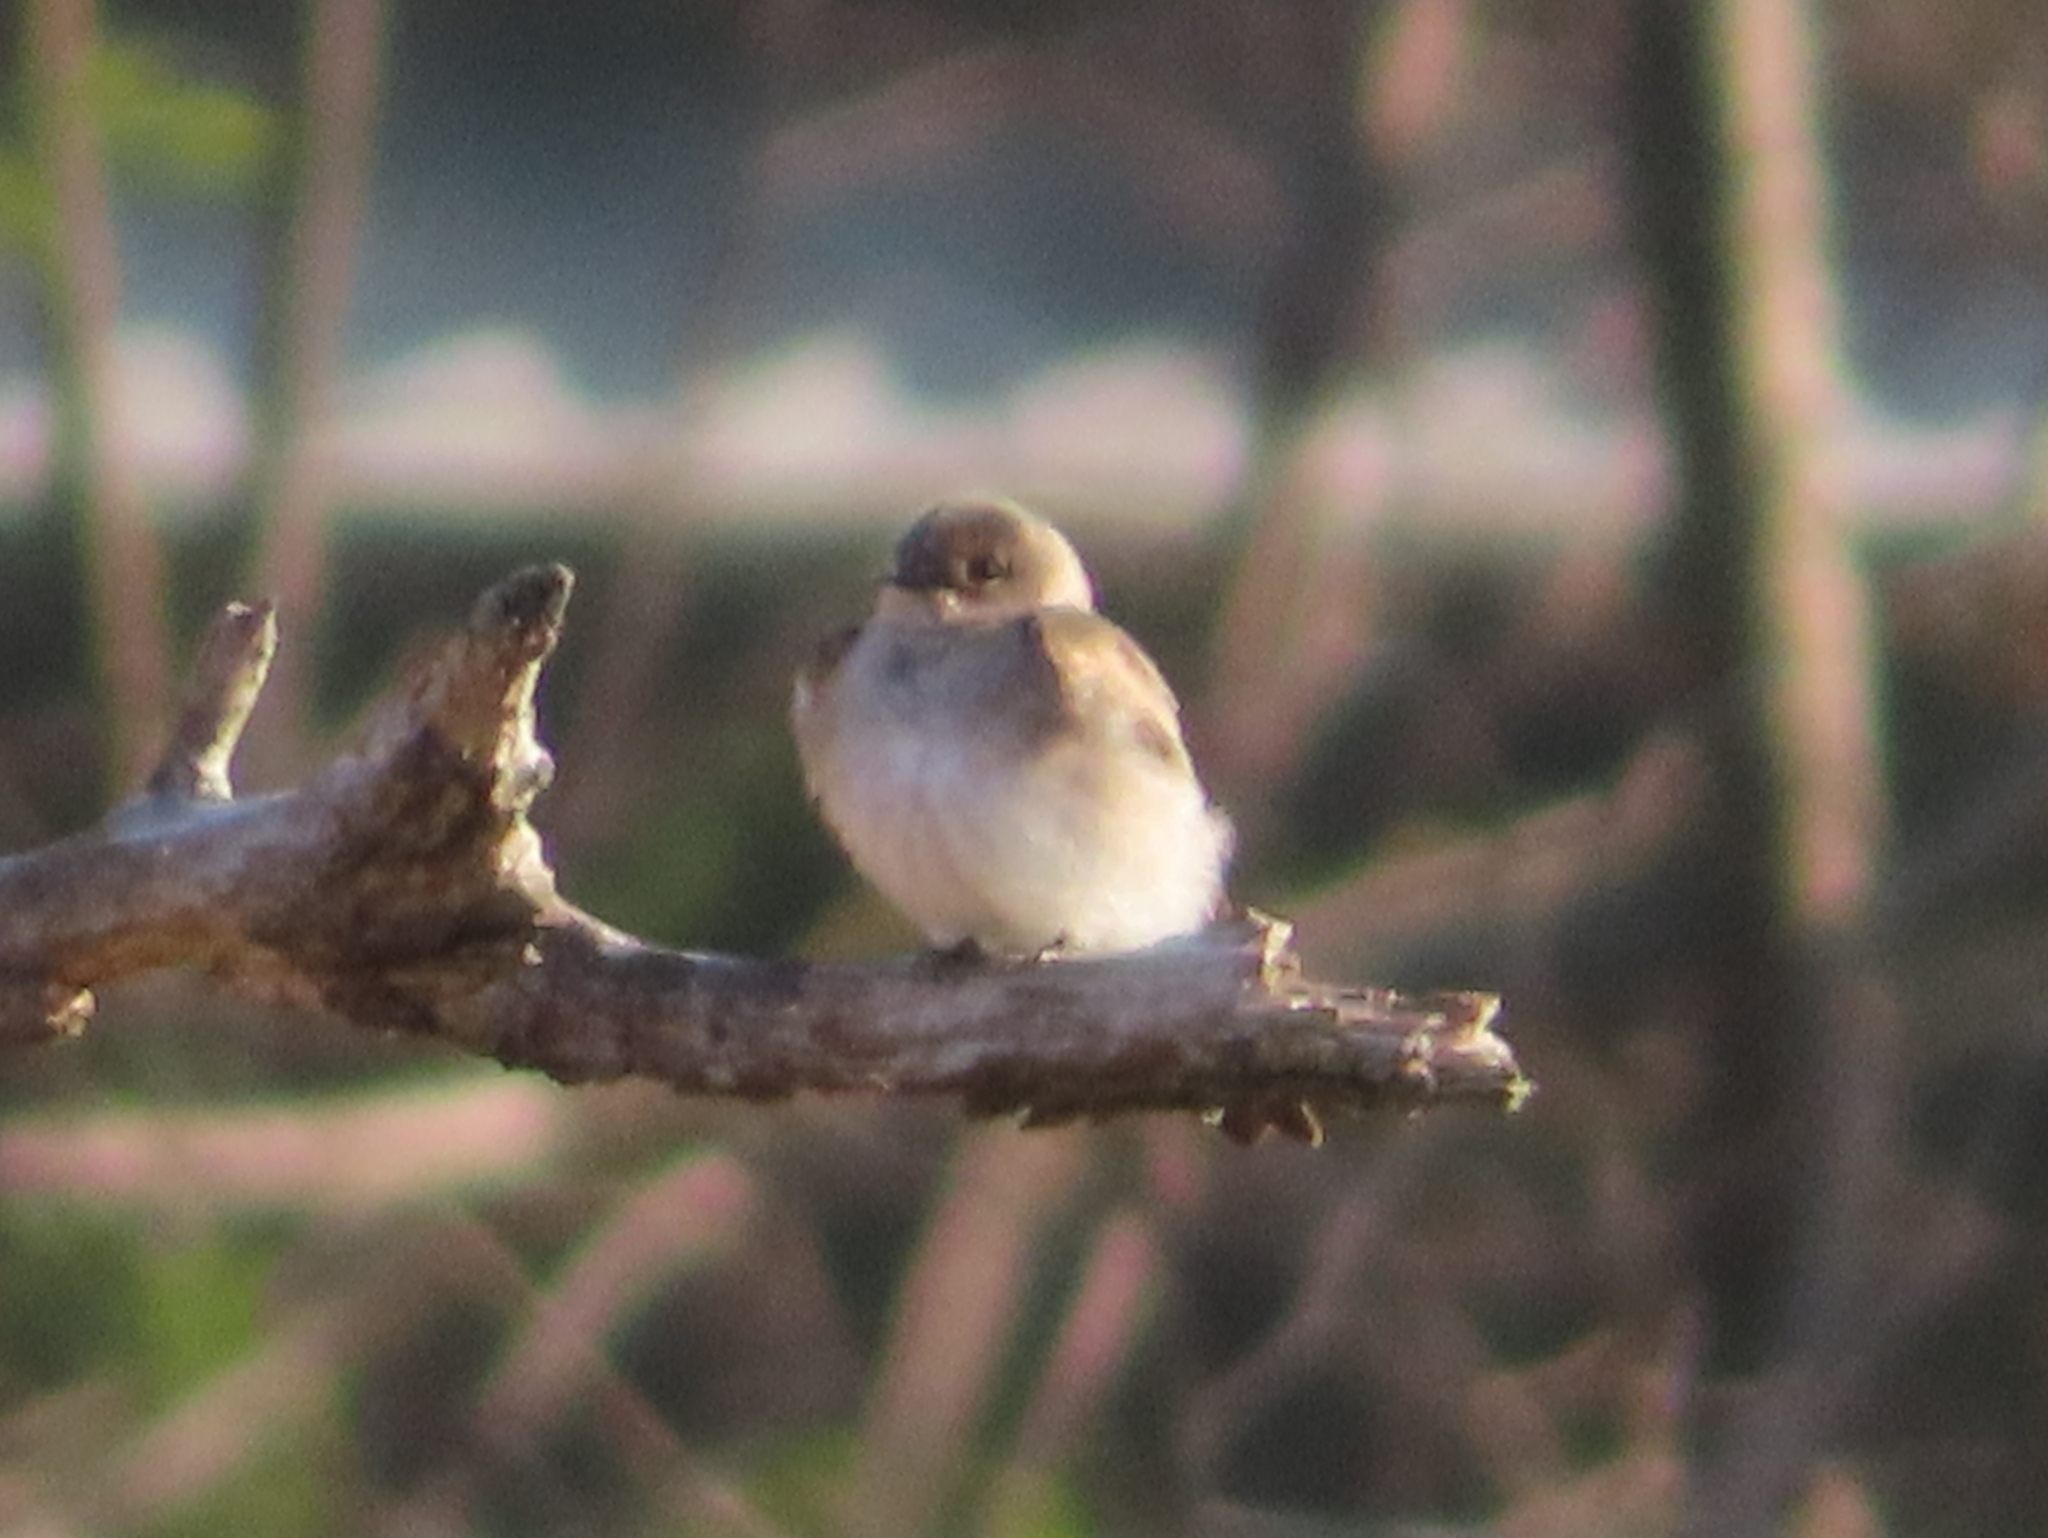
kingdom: Animalia
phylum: Chordata
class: Aves
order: Passeriformes
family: Hirundinidae
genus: Stelgidopteryx
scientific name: Stelgidopteryx serripennis
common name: Northern rough-winged swallow
